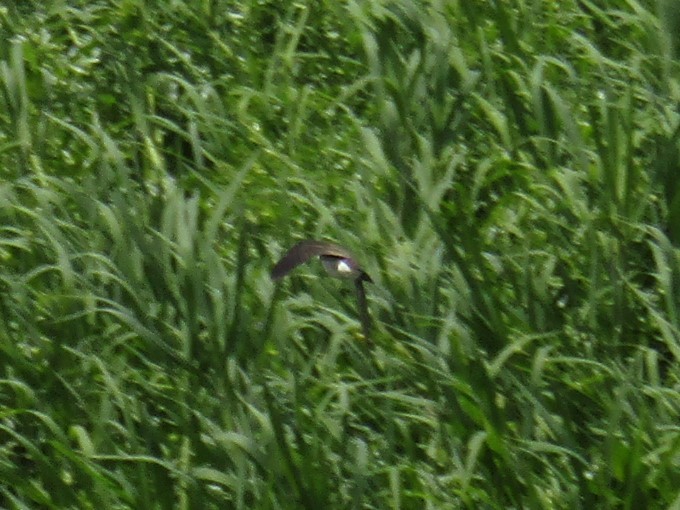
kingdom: Animalia
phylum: Chordata
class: Aves
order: Passeriformes
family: Hirundinidae
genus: Progne
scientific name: Progne tapera
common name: Brown-chested martin
